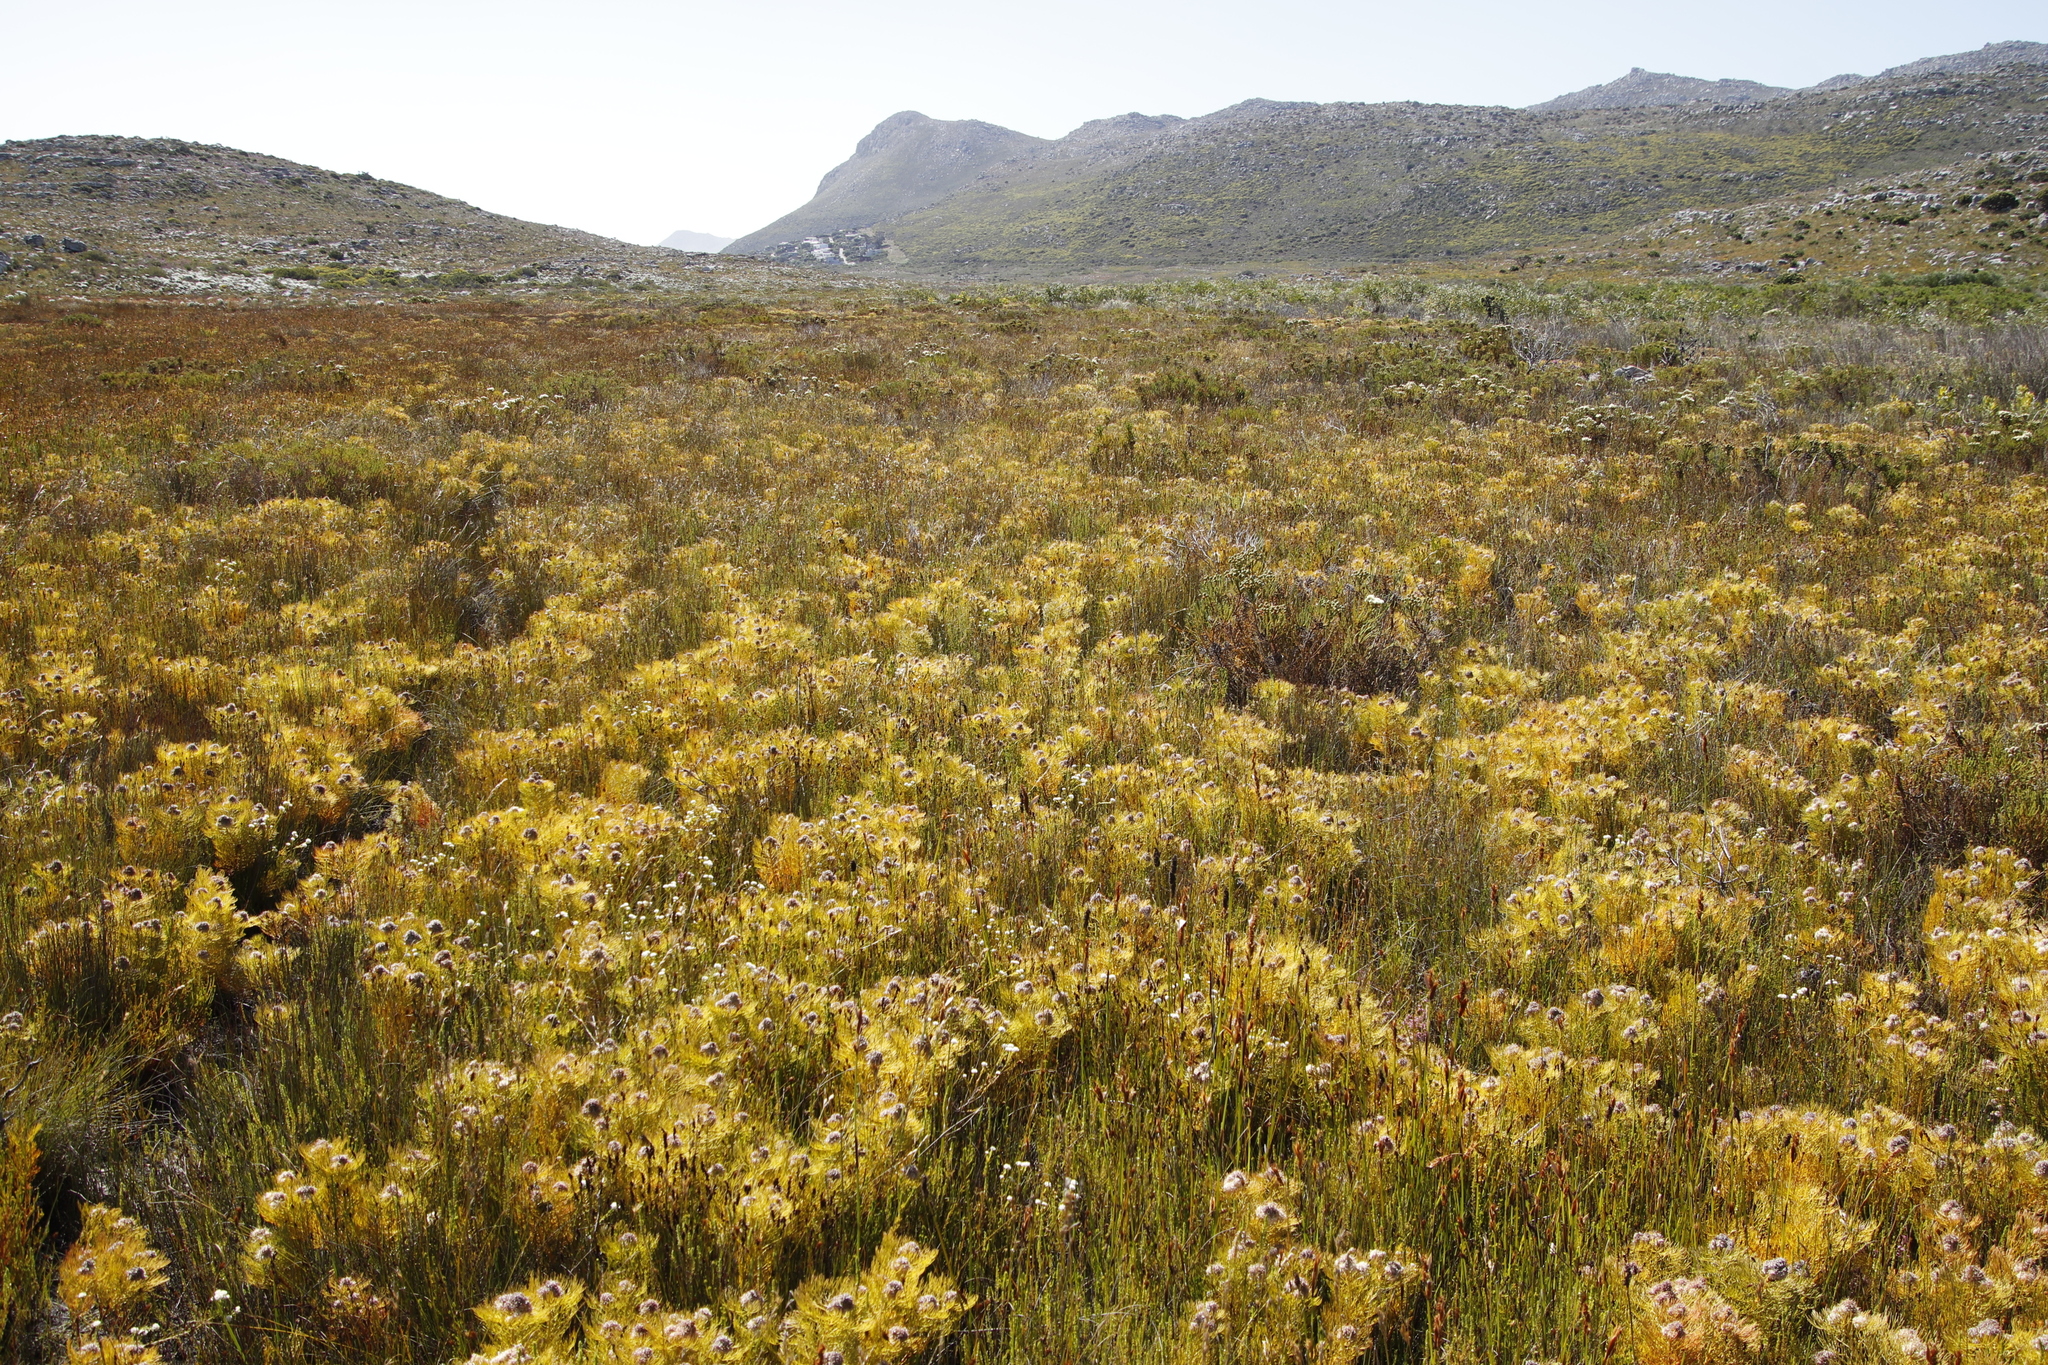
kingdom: Plantae
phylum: Tracheophyta
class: Magnoliopsida
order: Proteales
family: Proteaceae
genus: Serruria
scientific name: Serruria glomerata
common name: Cluster spiderhead
